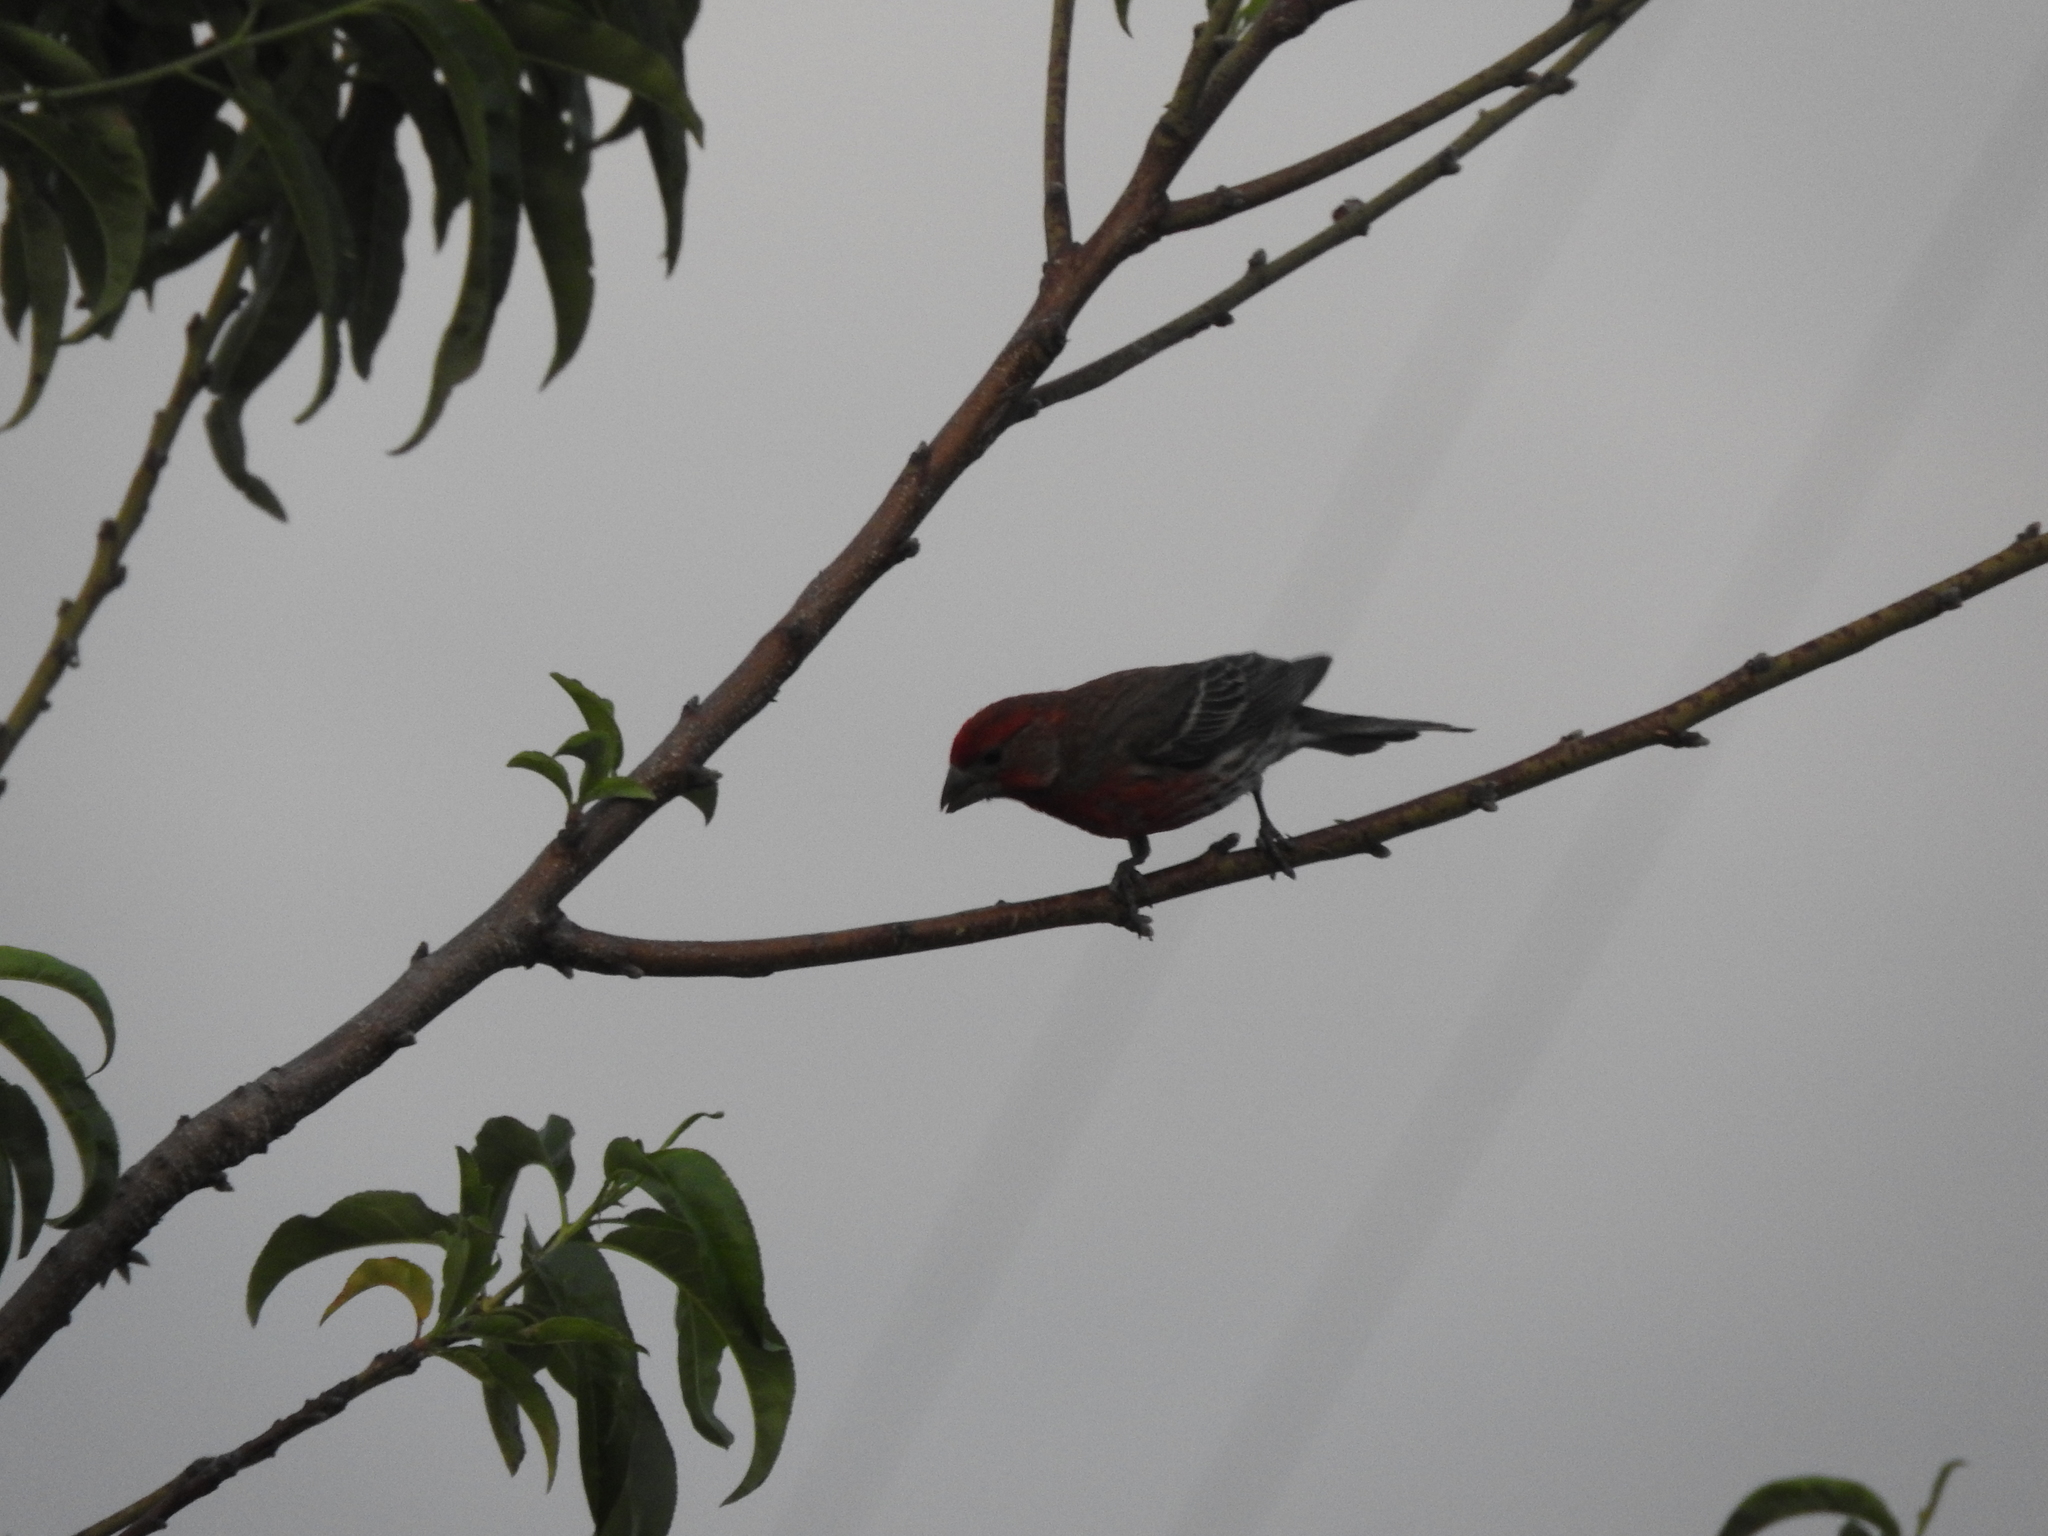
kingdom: Animalia
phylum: Chordata
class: Aves
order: Passeriformes
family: Fringillidae
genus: Haemorhous
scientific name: Haemorhous mexicanus
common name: House finch
